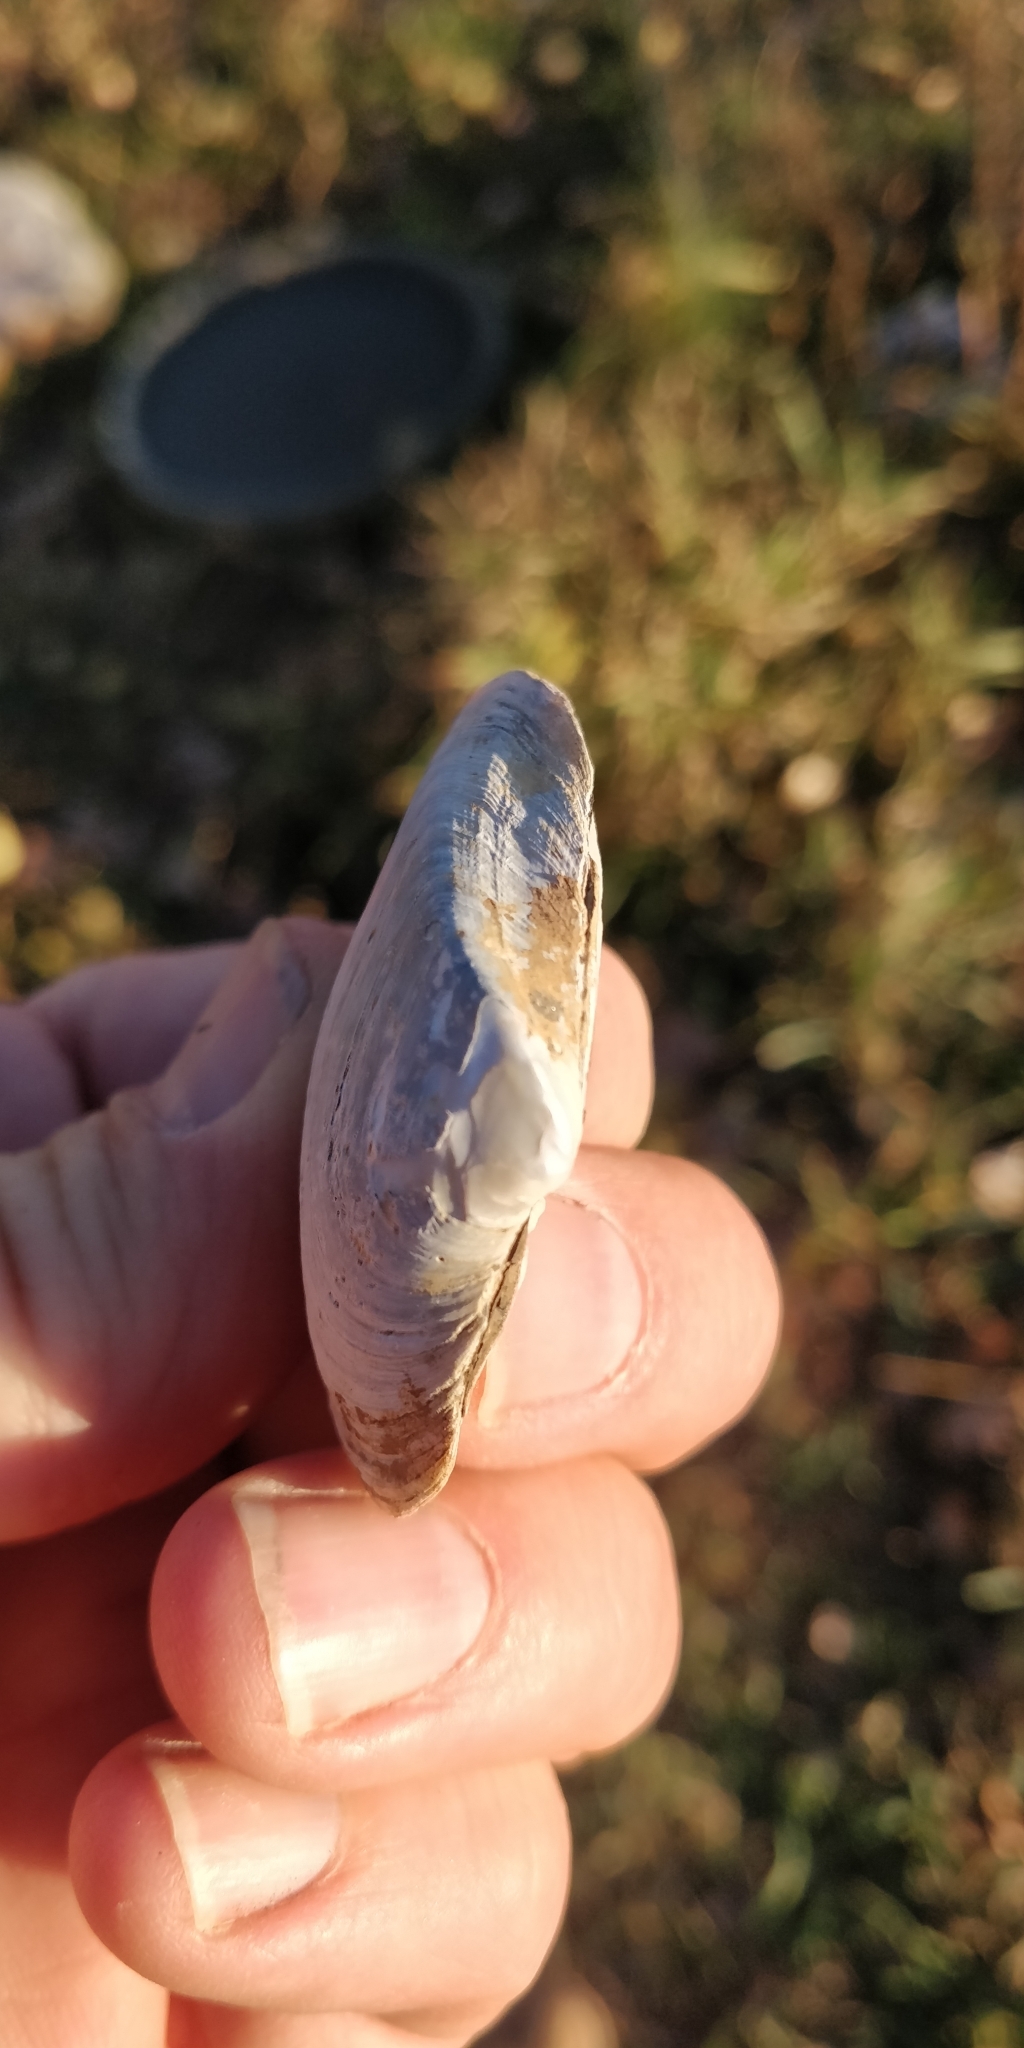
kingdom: Animalia
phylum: Mollusca
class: Bivalvia
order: Unionida
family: Unionidae
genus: Truncilla
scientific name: Truncilla truncata
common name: Deertoe
